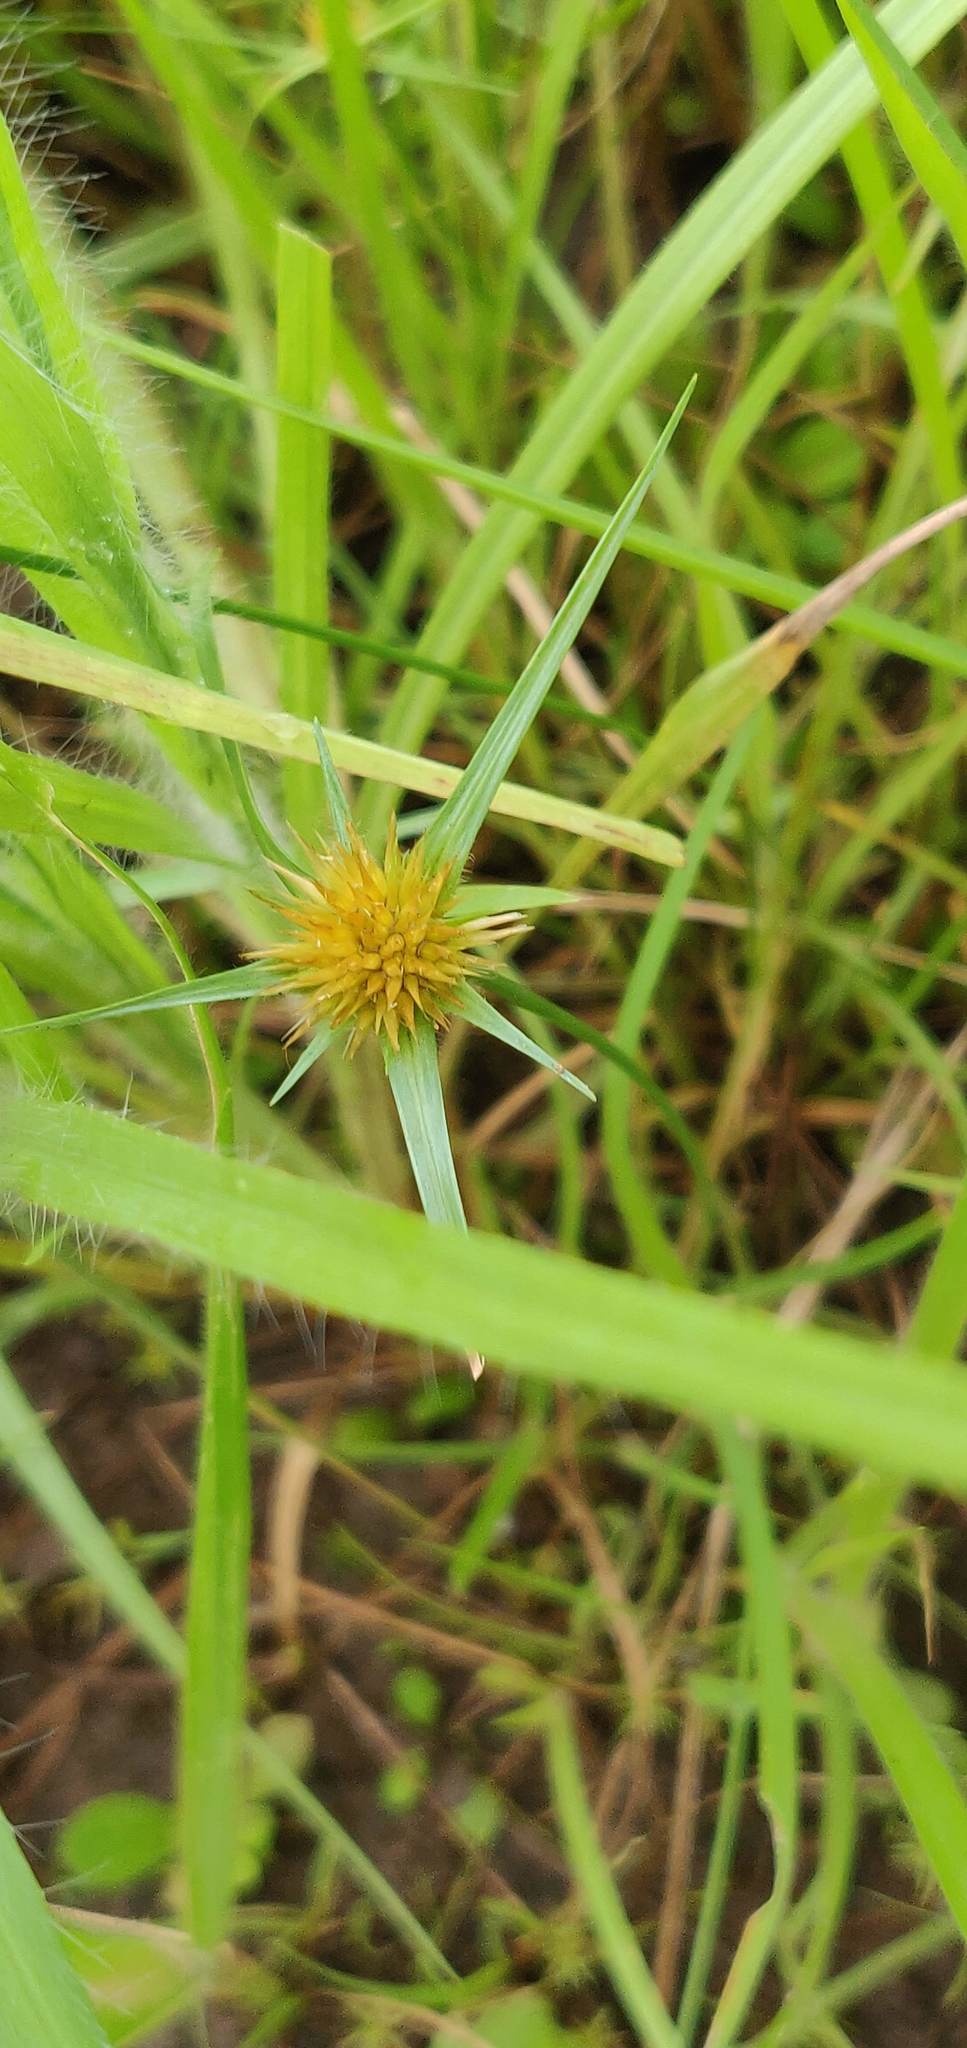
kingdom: Plantae
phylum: Tracheophyta
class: Liliopsida
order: Poales
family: Cyperaceae
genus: Rhynchospora
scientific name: Rhynchospora wightiana
